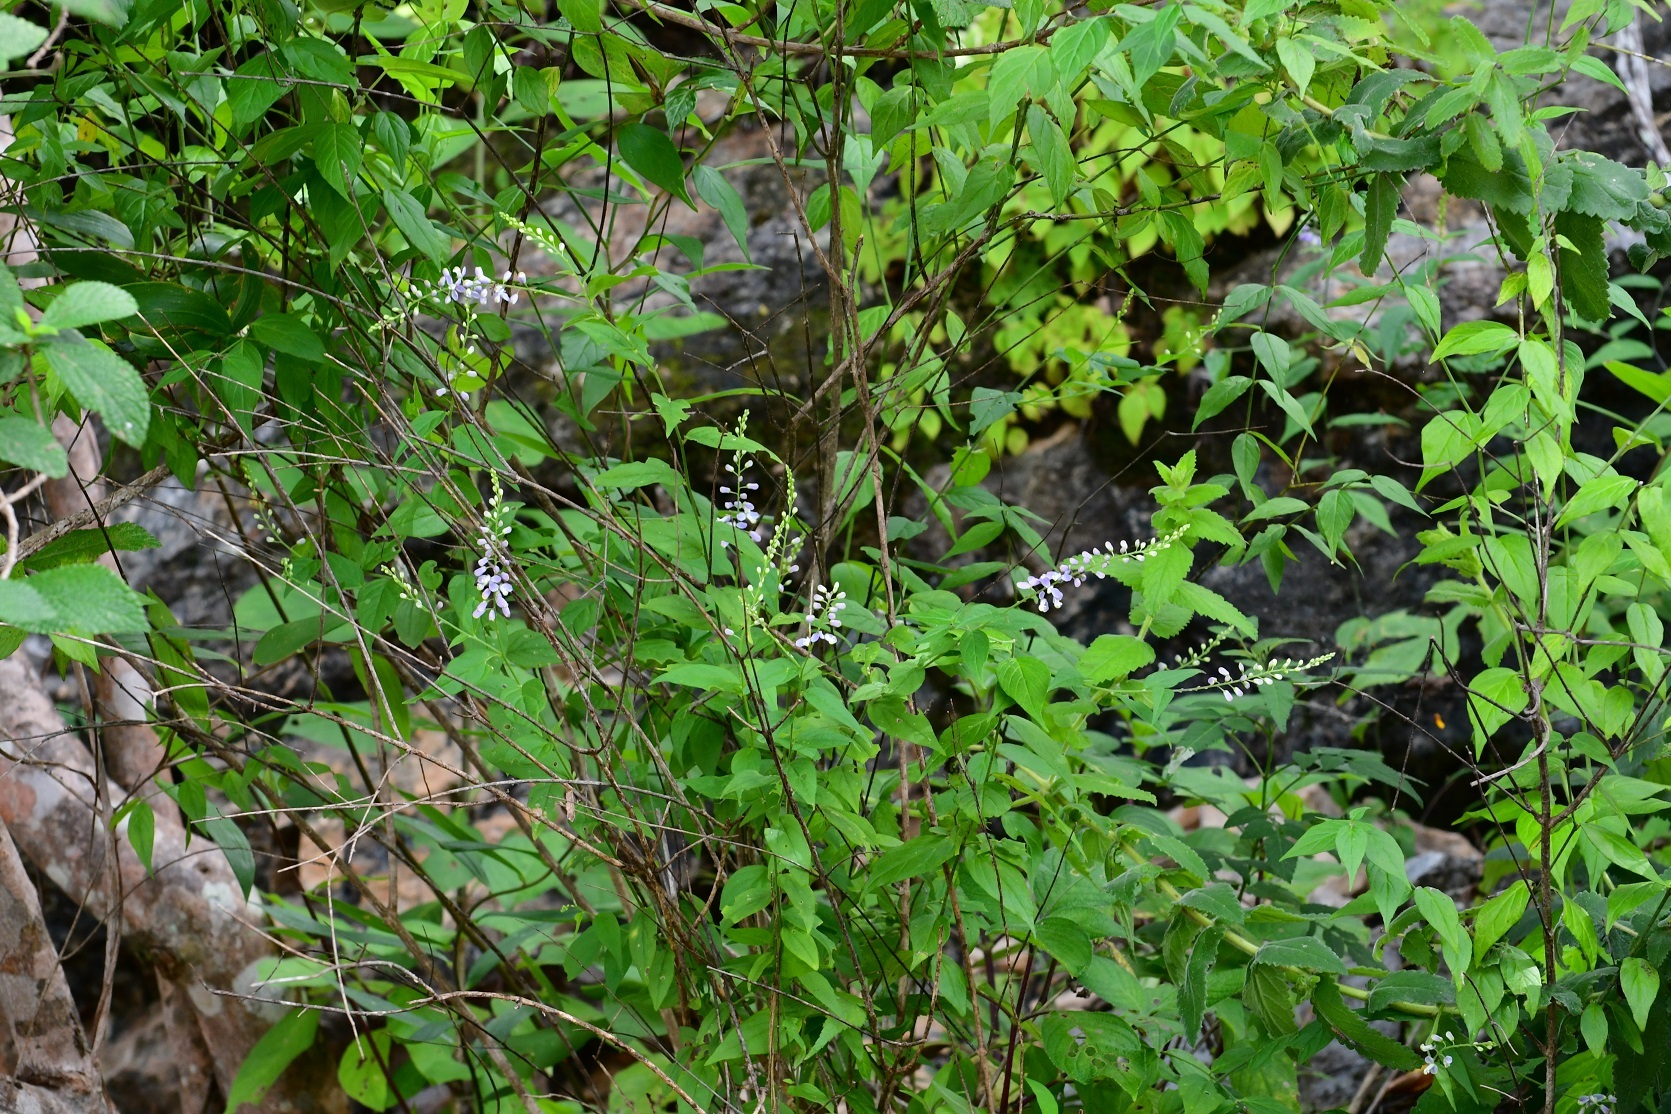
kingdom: Plantae
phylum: Tracheophyta
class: Magnoliopsida
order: Fabales
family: Polygalaceae
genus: Hebecarpa
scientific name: Hebecarpa costaricensis
